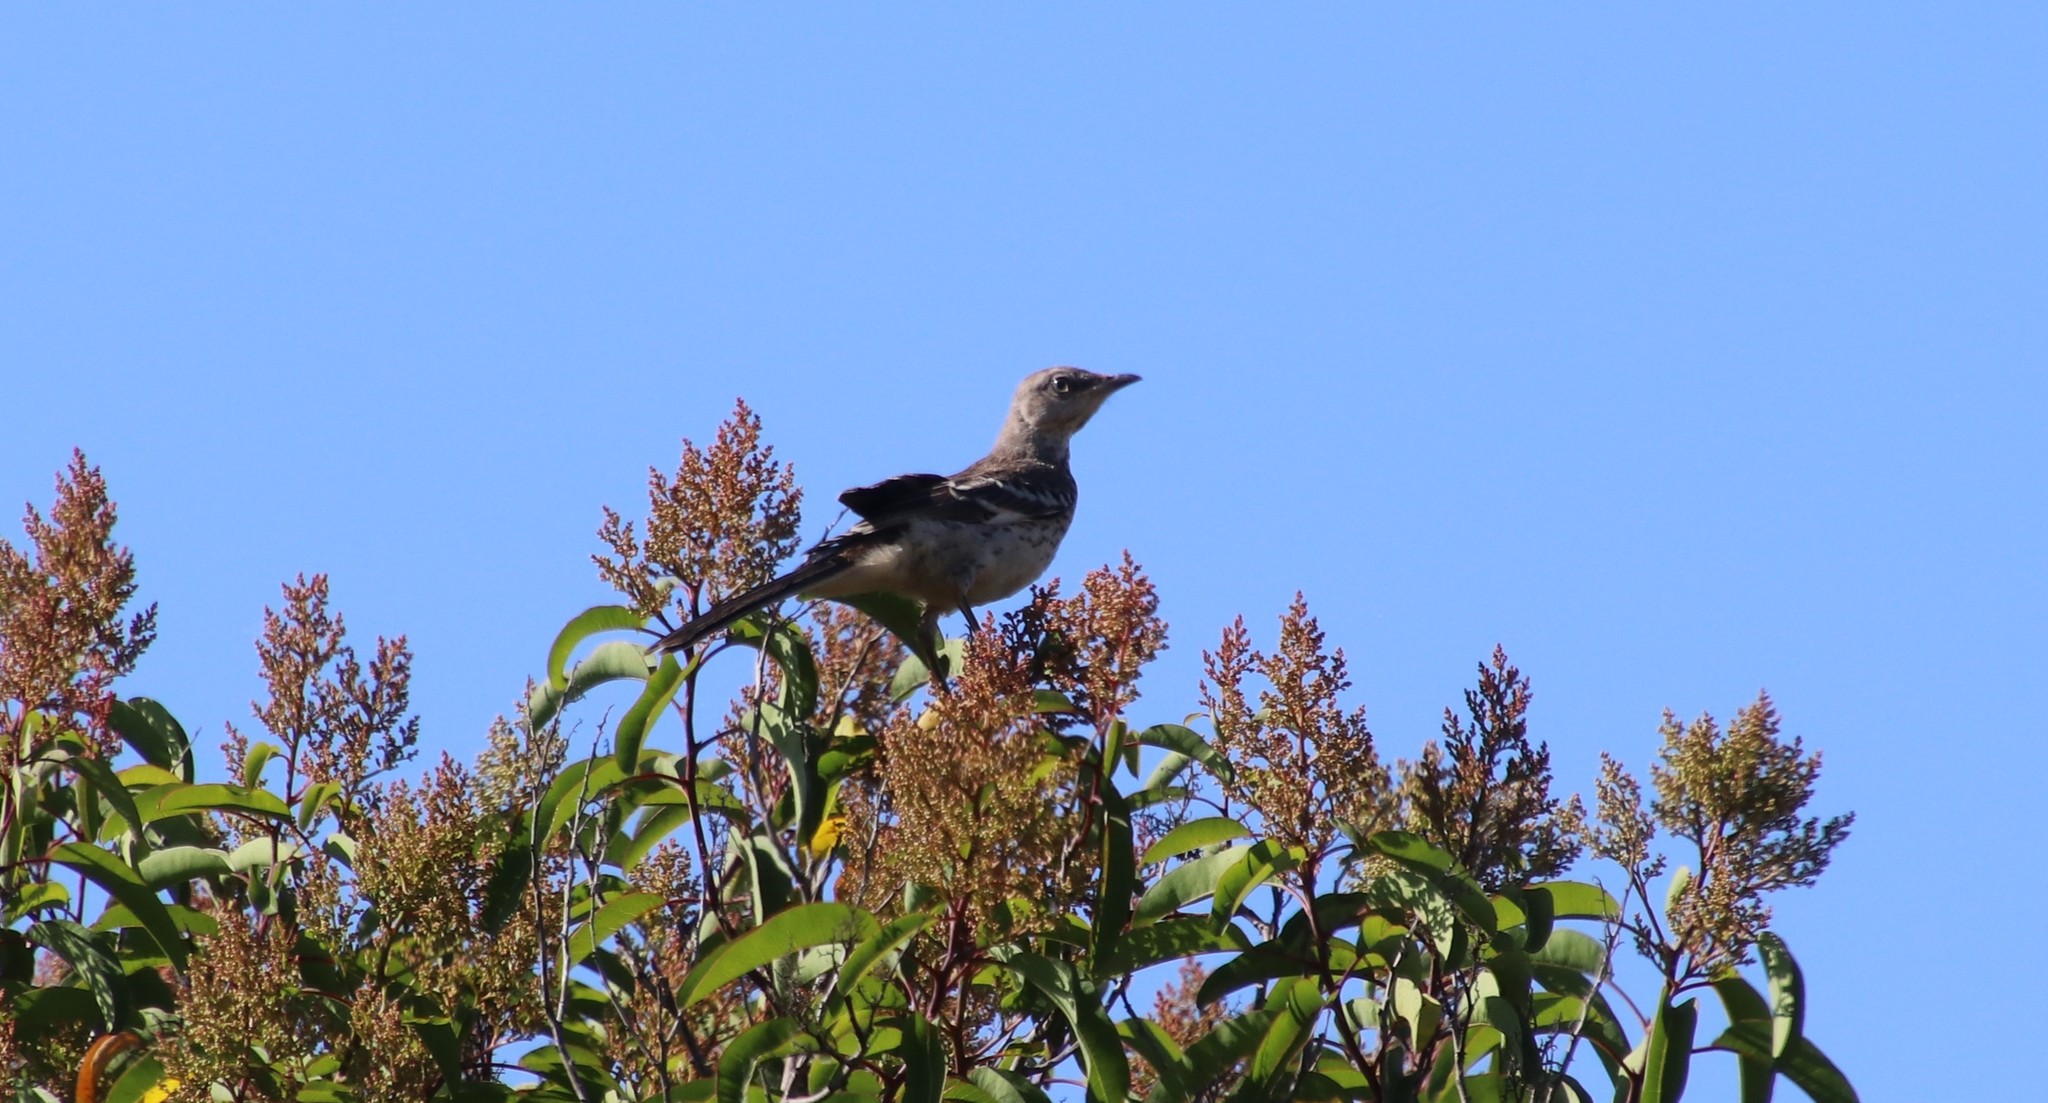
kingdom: Animalia
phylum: Chordata
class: Aves
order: Passeriformes
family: Mimidae
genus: Mimus
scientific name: Mimus polyglottos
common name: Northern mockingbird
